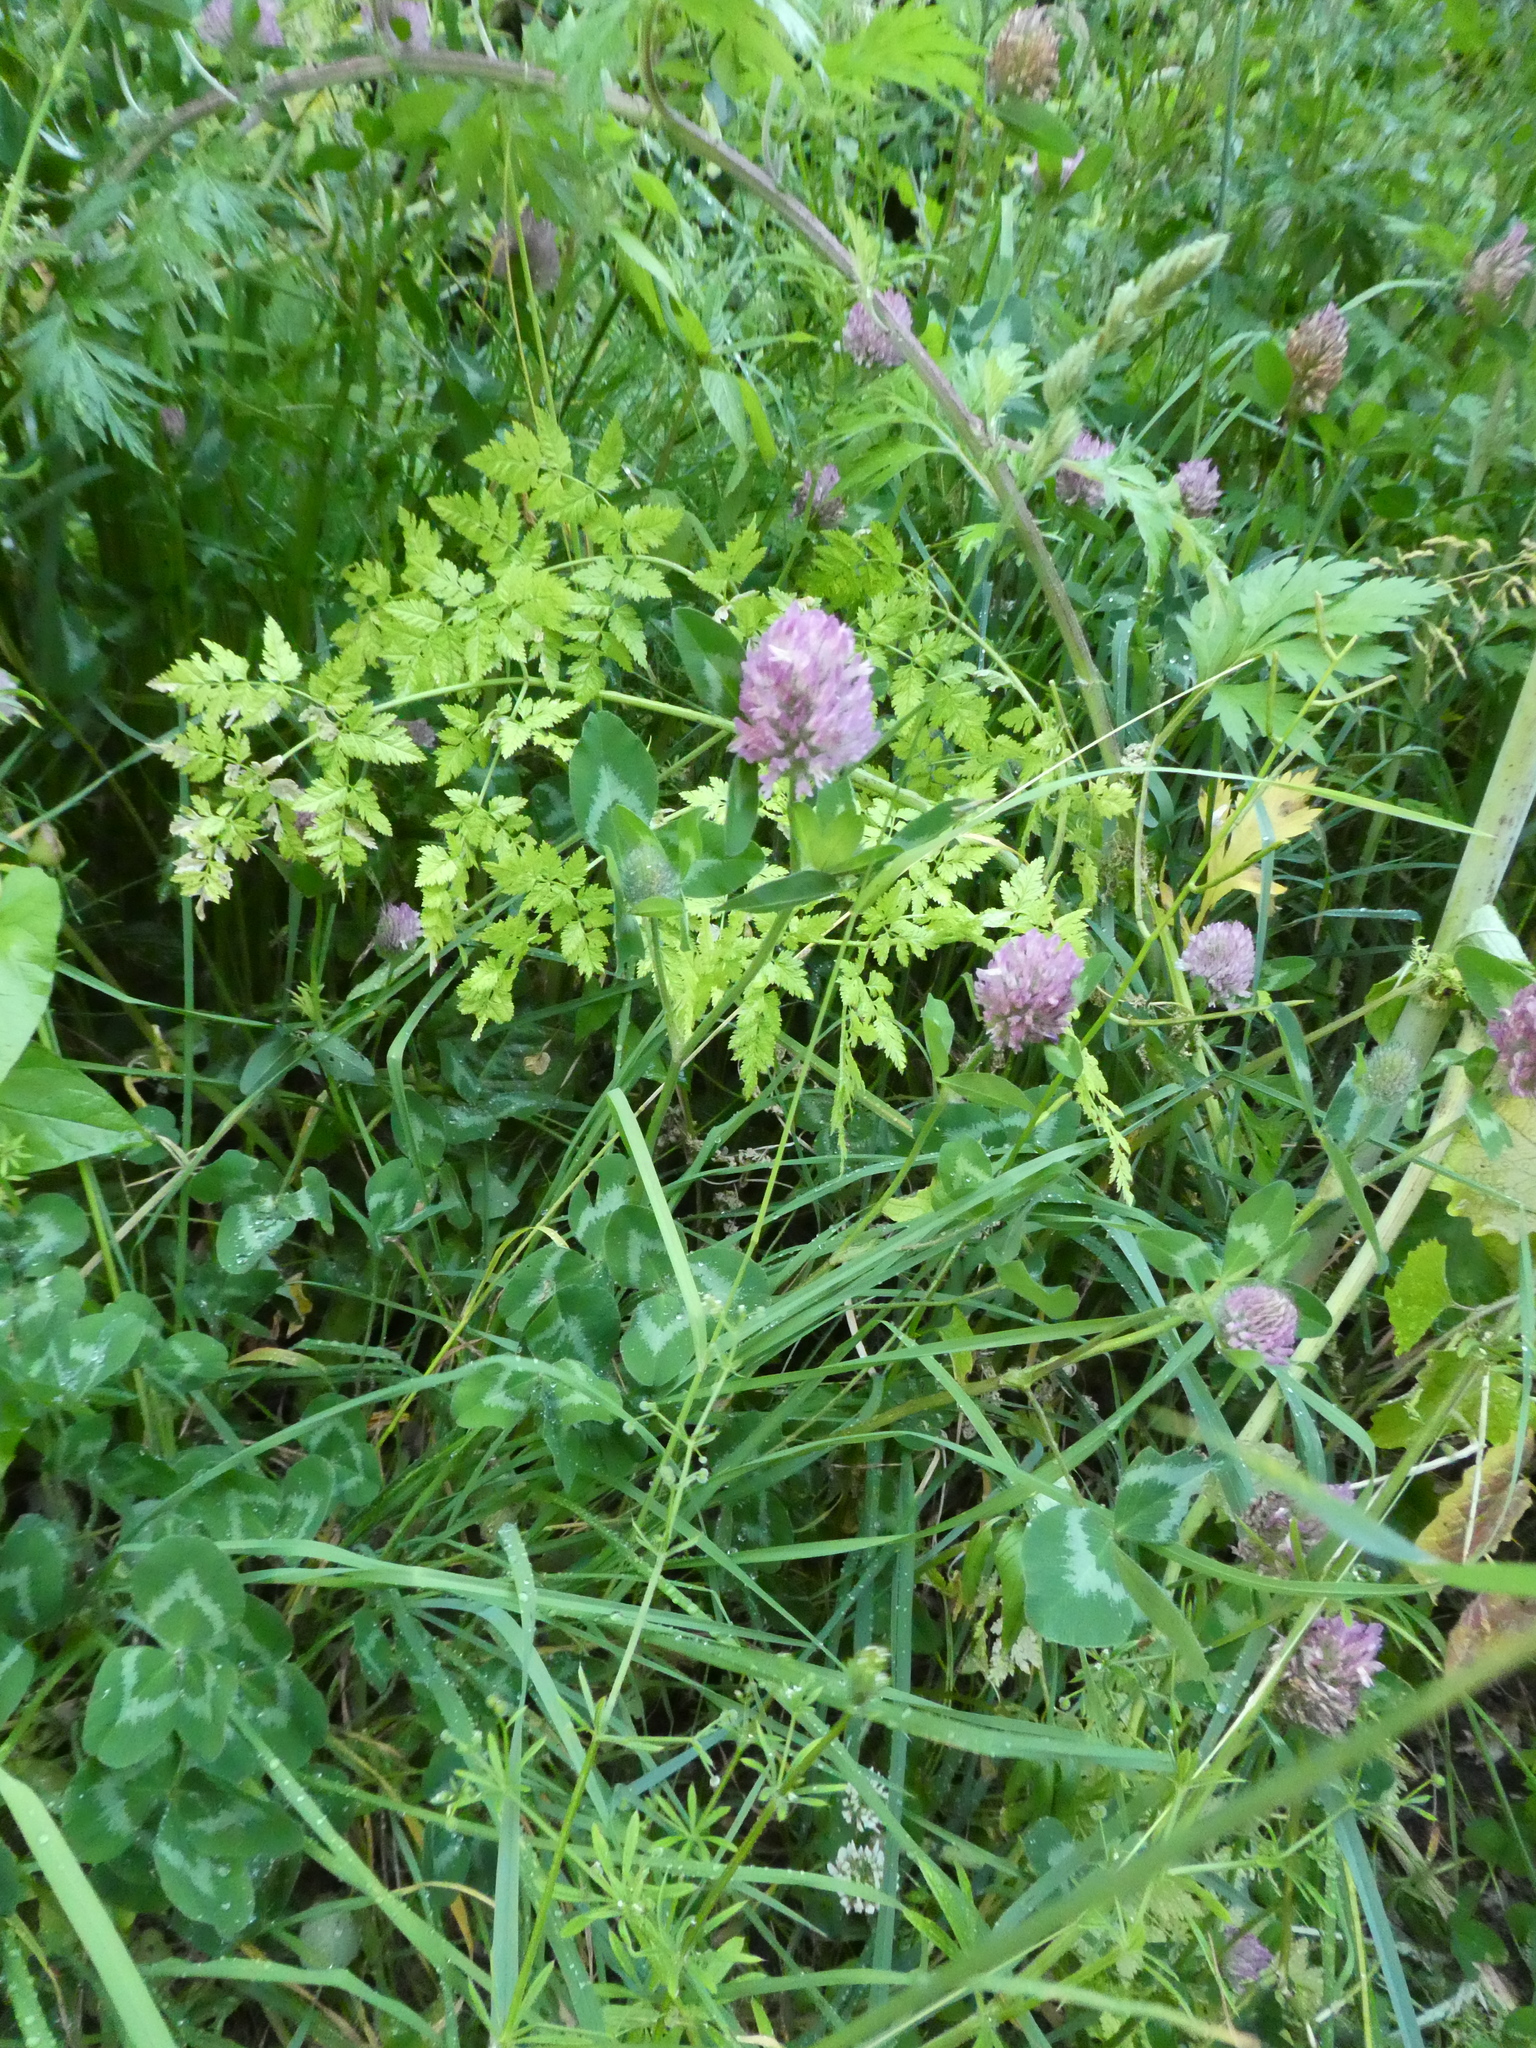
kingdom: Plantae
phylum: Tracheophyta
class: Magnoliopsida
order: Fabales
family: Fabaceae
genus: Trifolium
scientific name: Trifolium pratense
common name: Red clover
